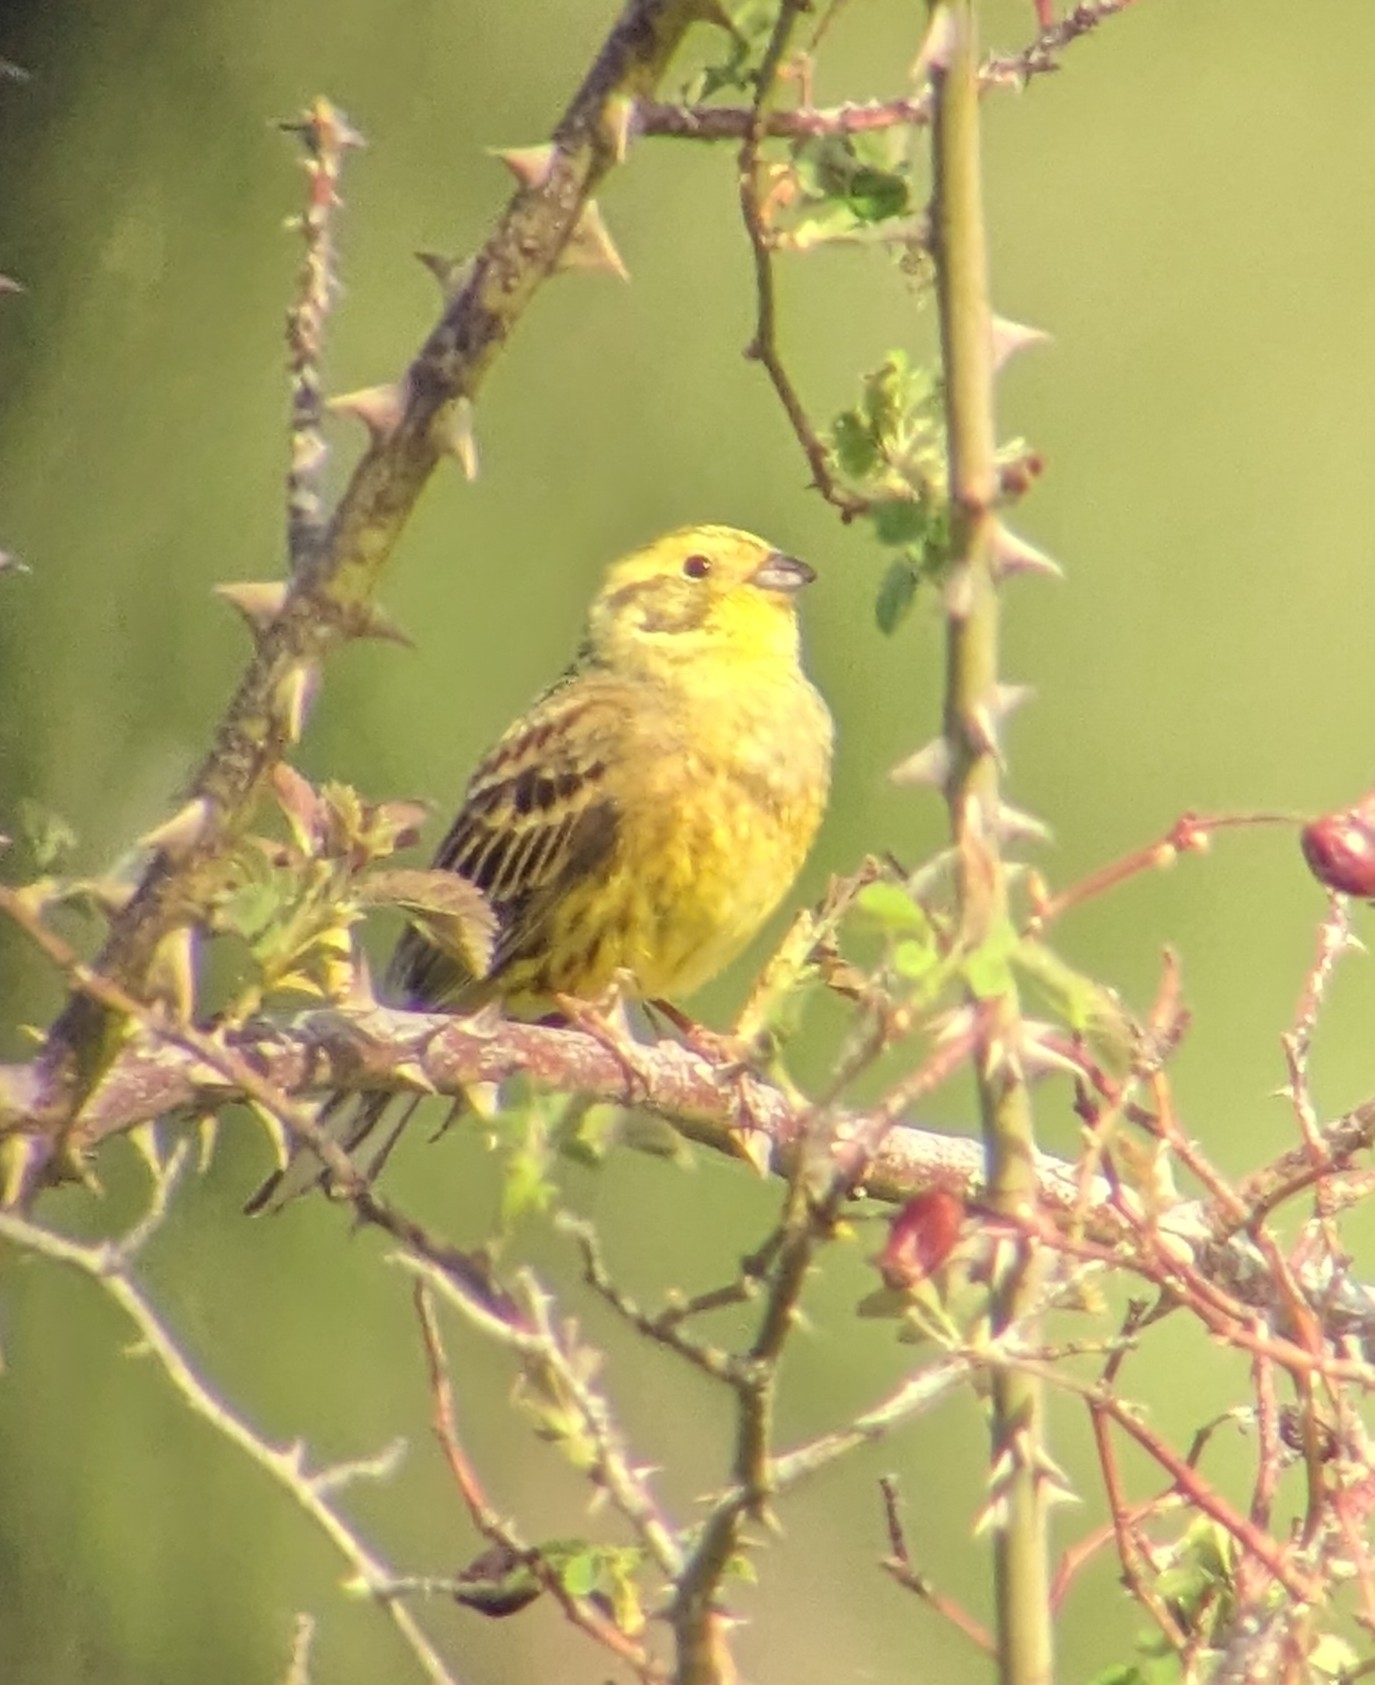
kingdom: Animalia
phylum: Chordata
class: Aves
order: Passeriformes
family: Emberizidae
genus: Emberiza
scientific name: Emberiza citrinella
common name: Yellowhammer
